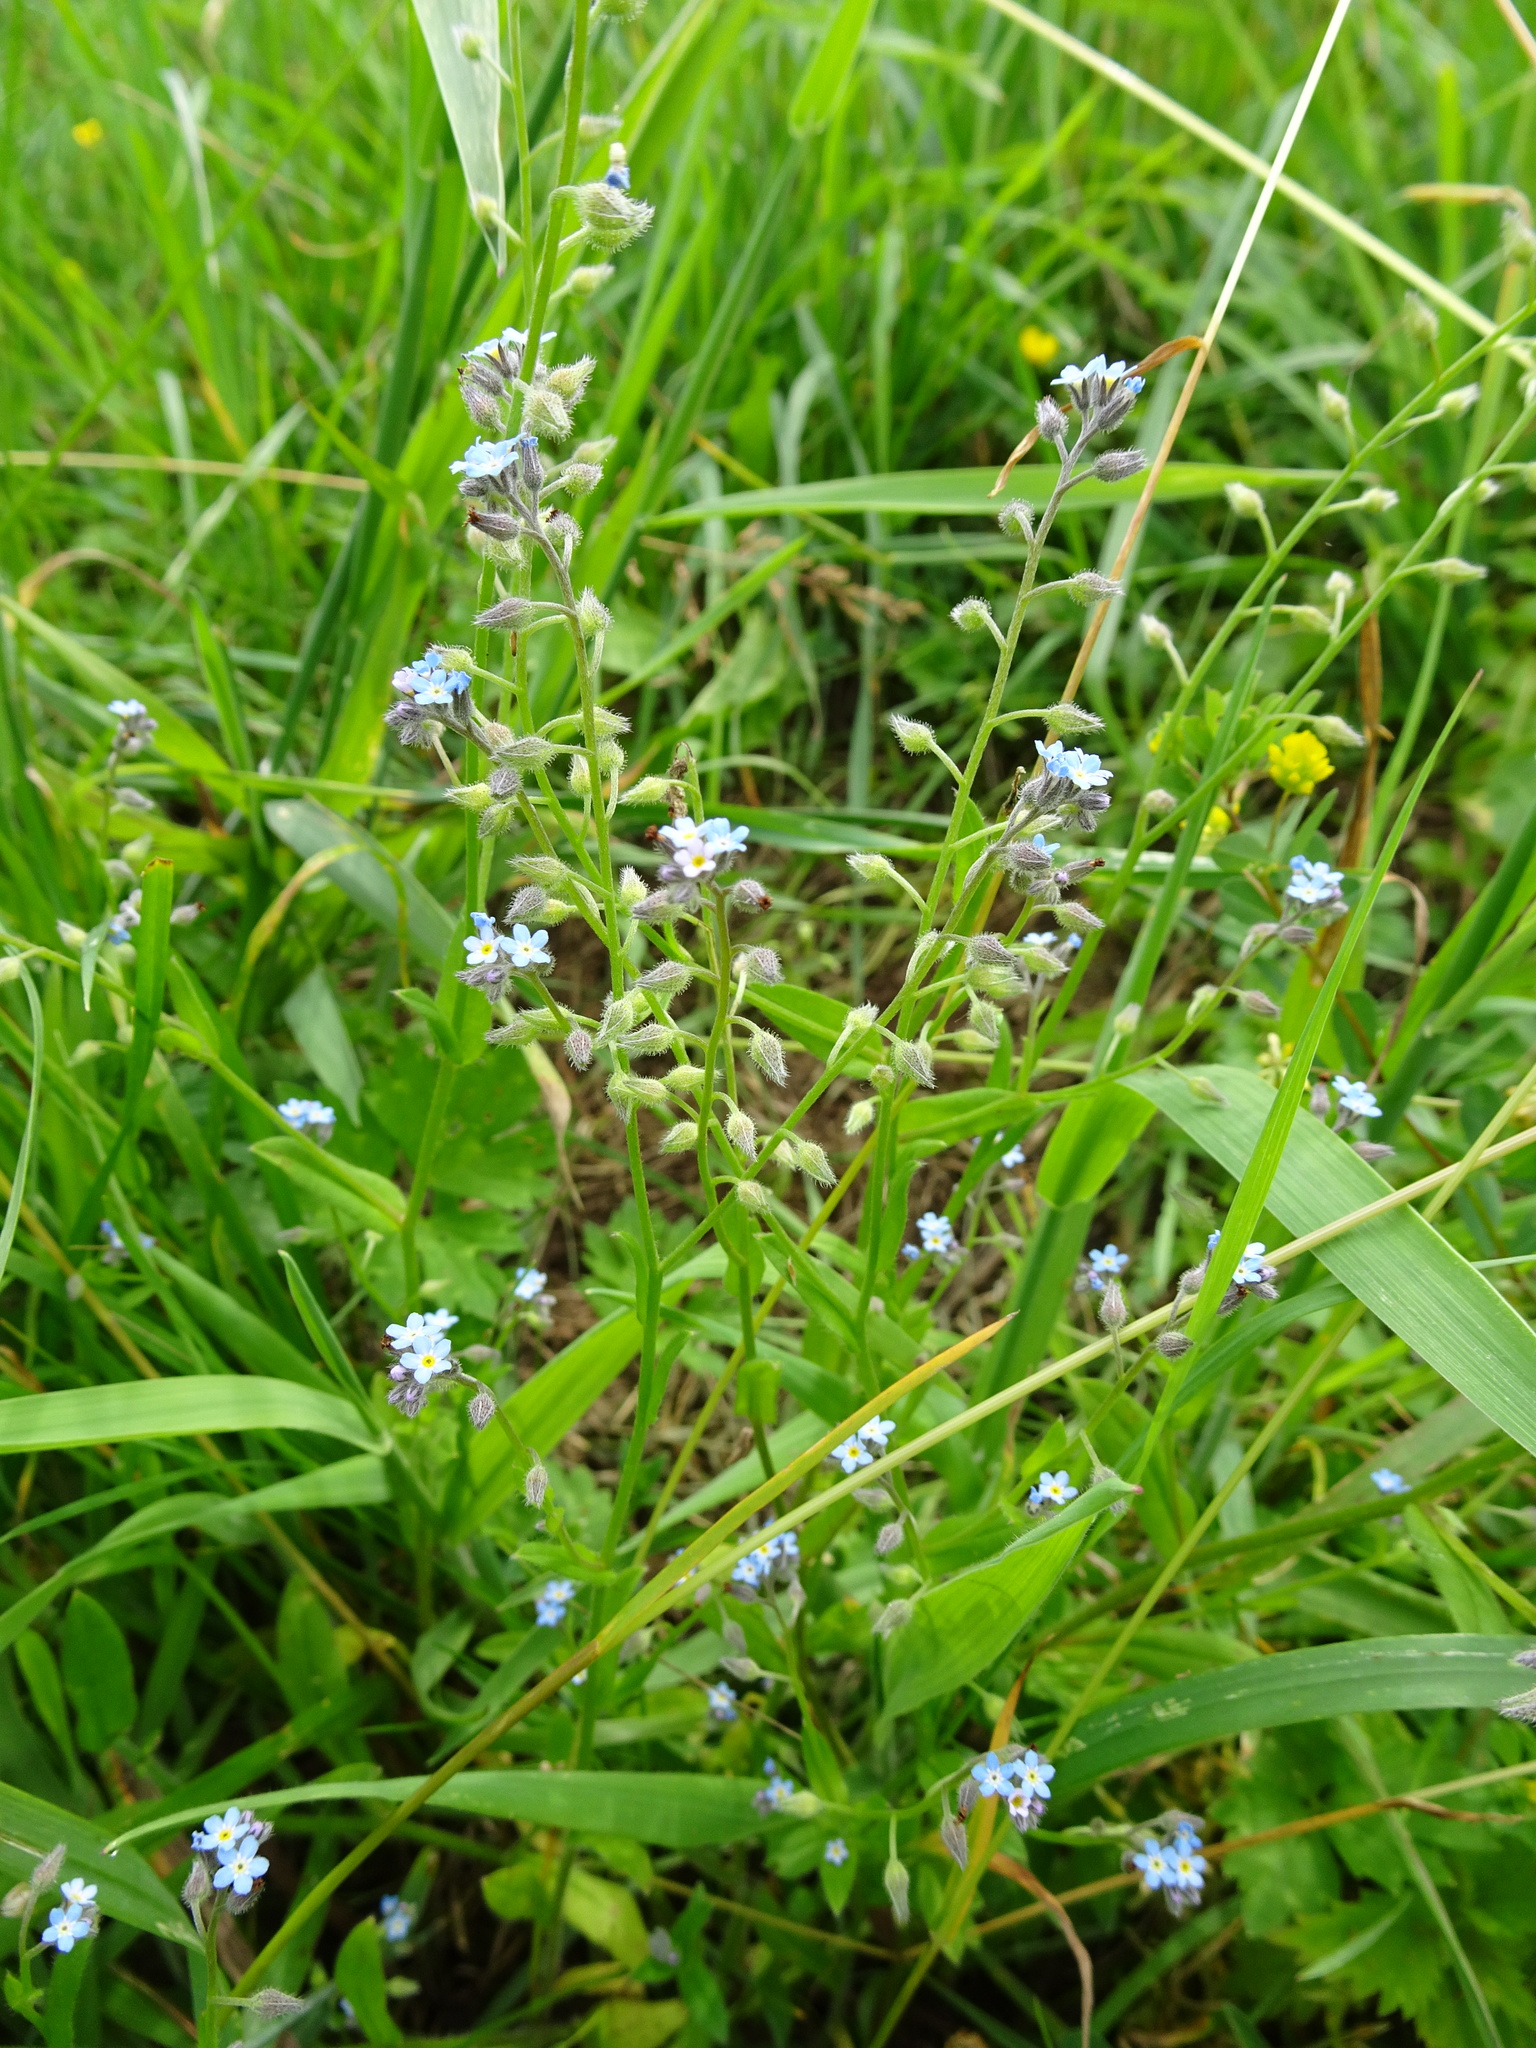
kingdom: Plantae
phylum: Tracheophyta
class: Magnoliopsida
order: Boraginales
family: Boraginaceae
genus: Myosotis
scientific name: Myosotis arvensis
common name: Field forget-me-not
